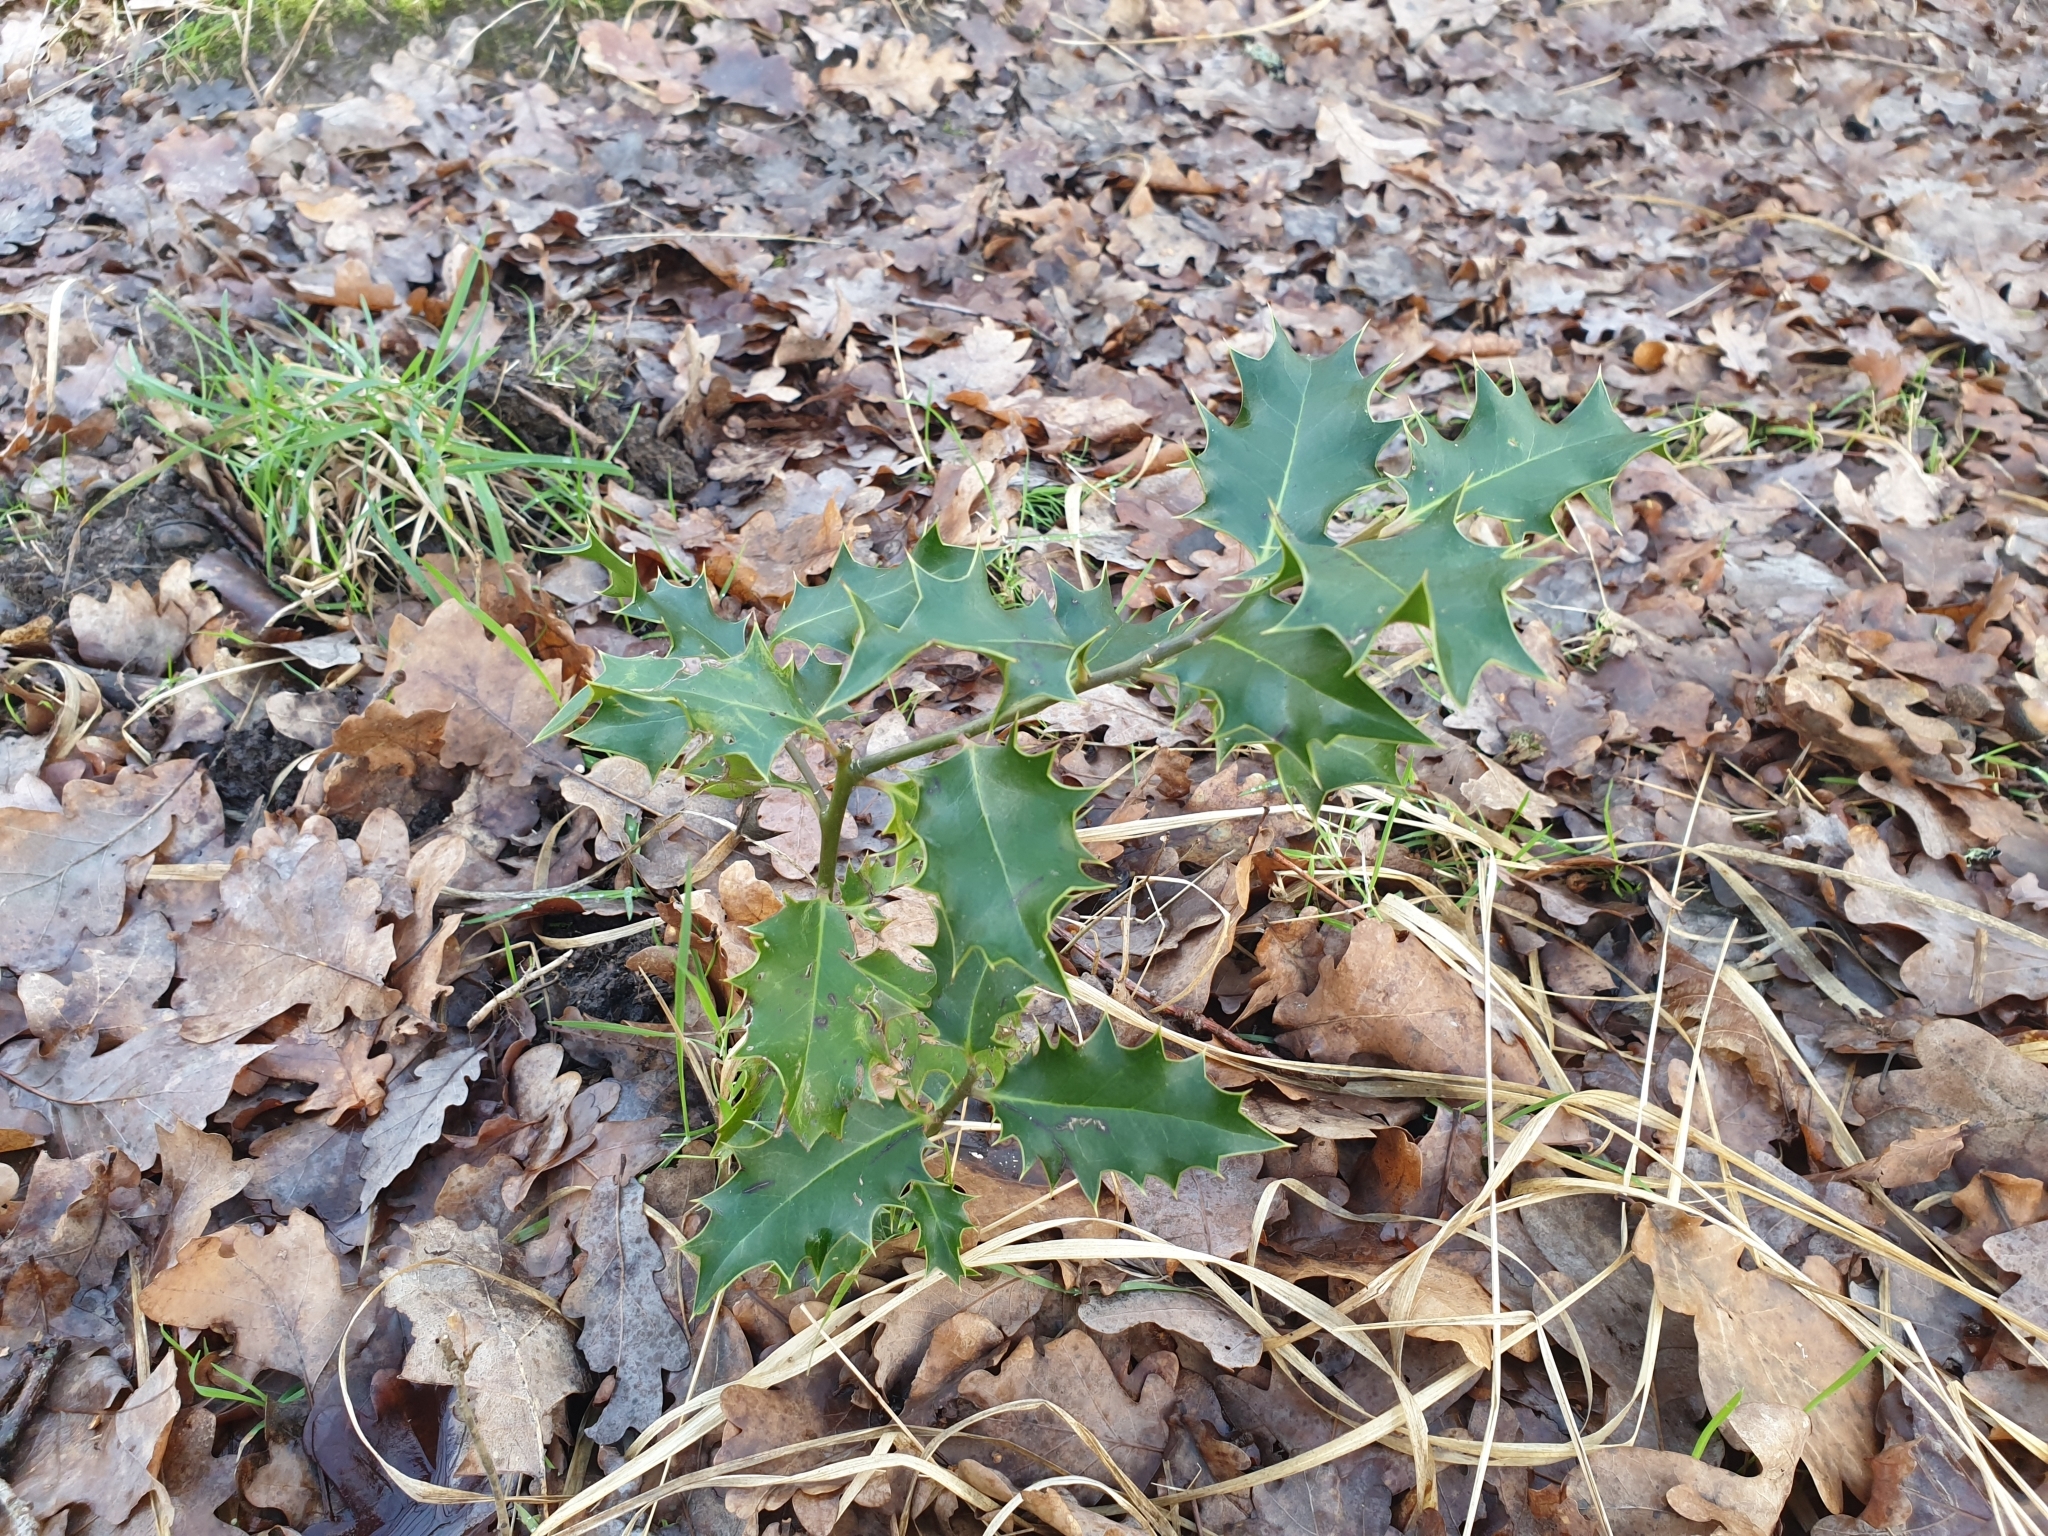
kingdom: Plantae
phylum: Tracheophyta
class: Magnoliopsida
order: Aquifoliales
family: Aquifoliaceae
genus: Ilex
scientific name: Ilex aquifolium
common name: English holly
